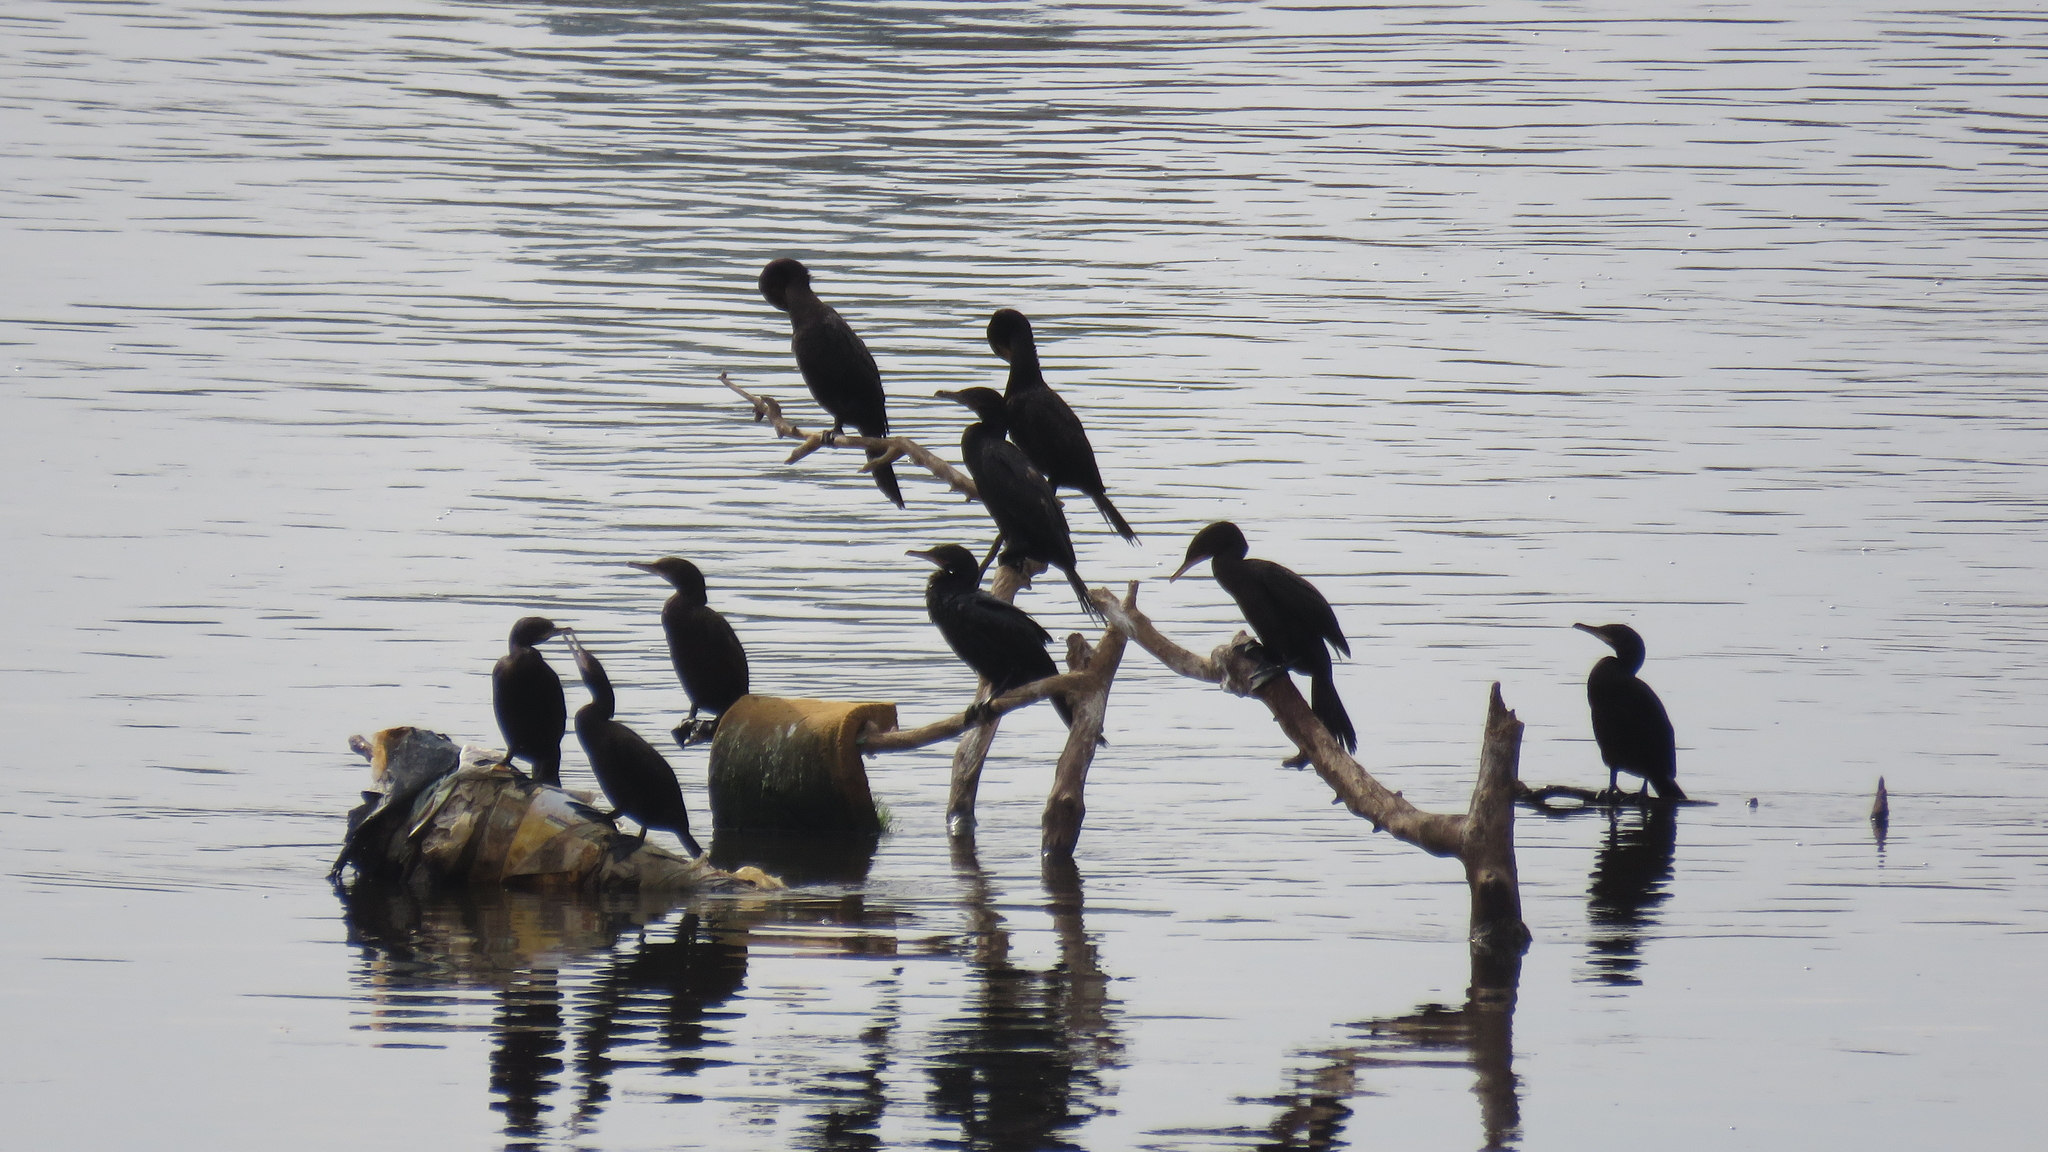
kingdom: Animalia
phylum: Chordata
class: Aves
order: Suliformes
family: Phalacrocoracidae
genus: Phalacrocorax
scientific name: Phalacrocorax brasilianus
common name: Neotropic cormorant
